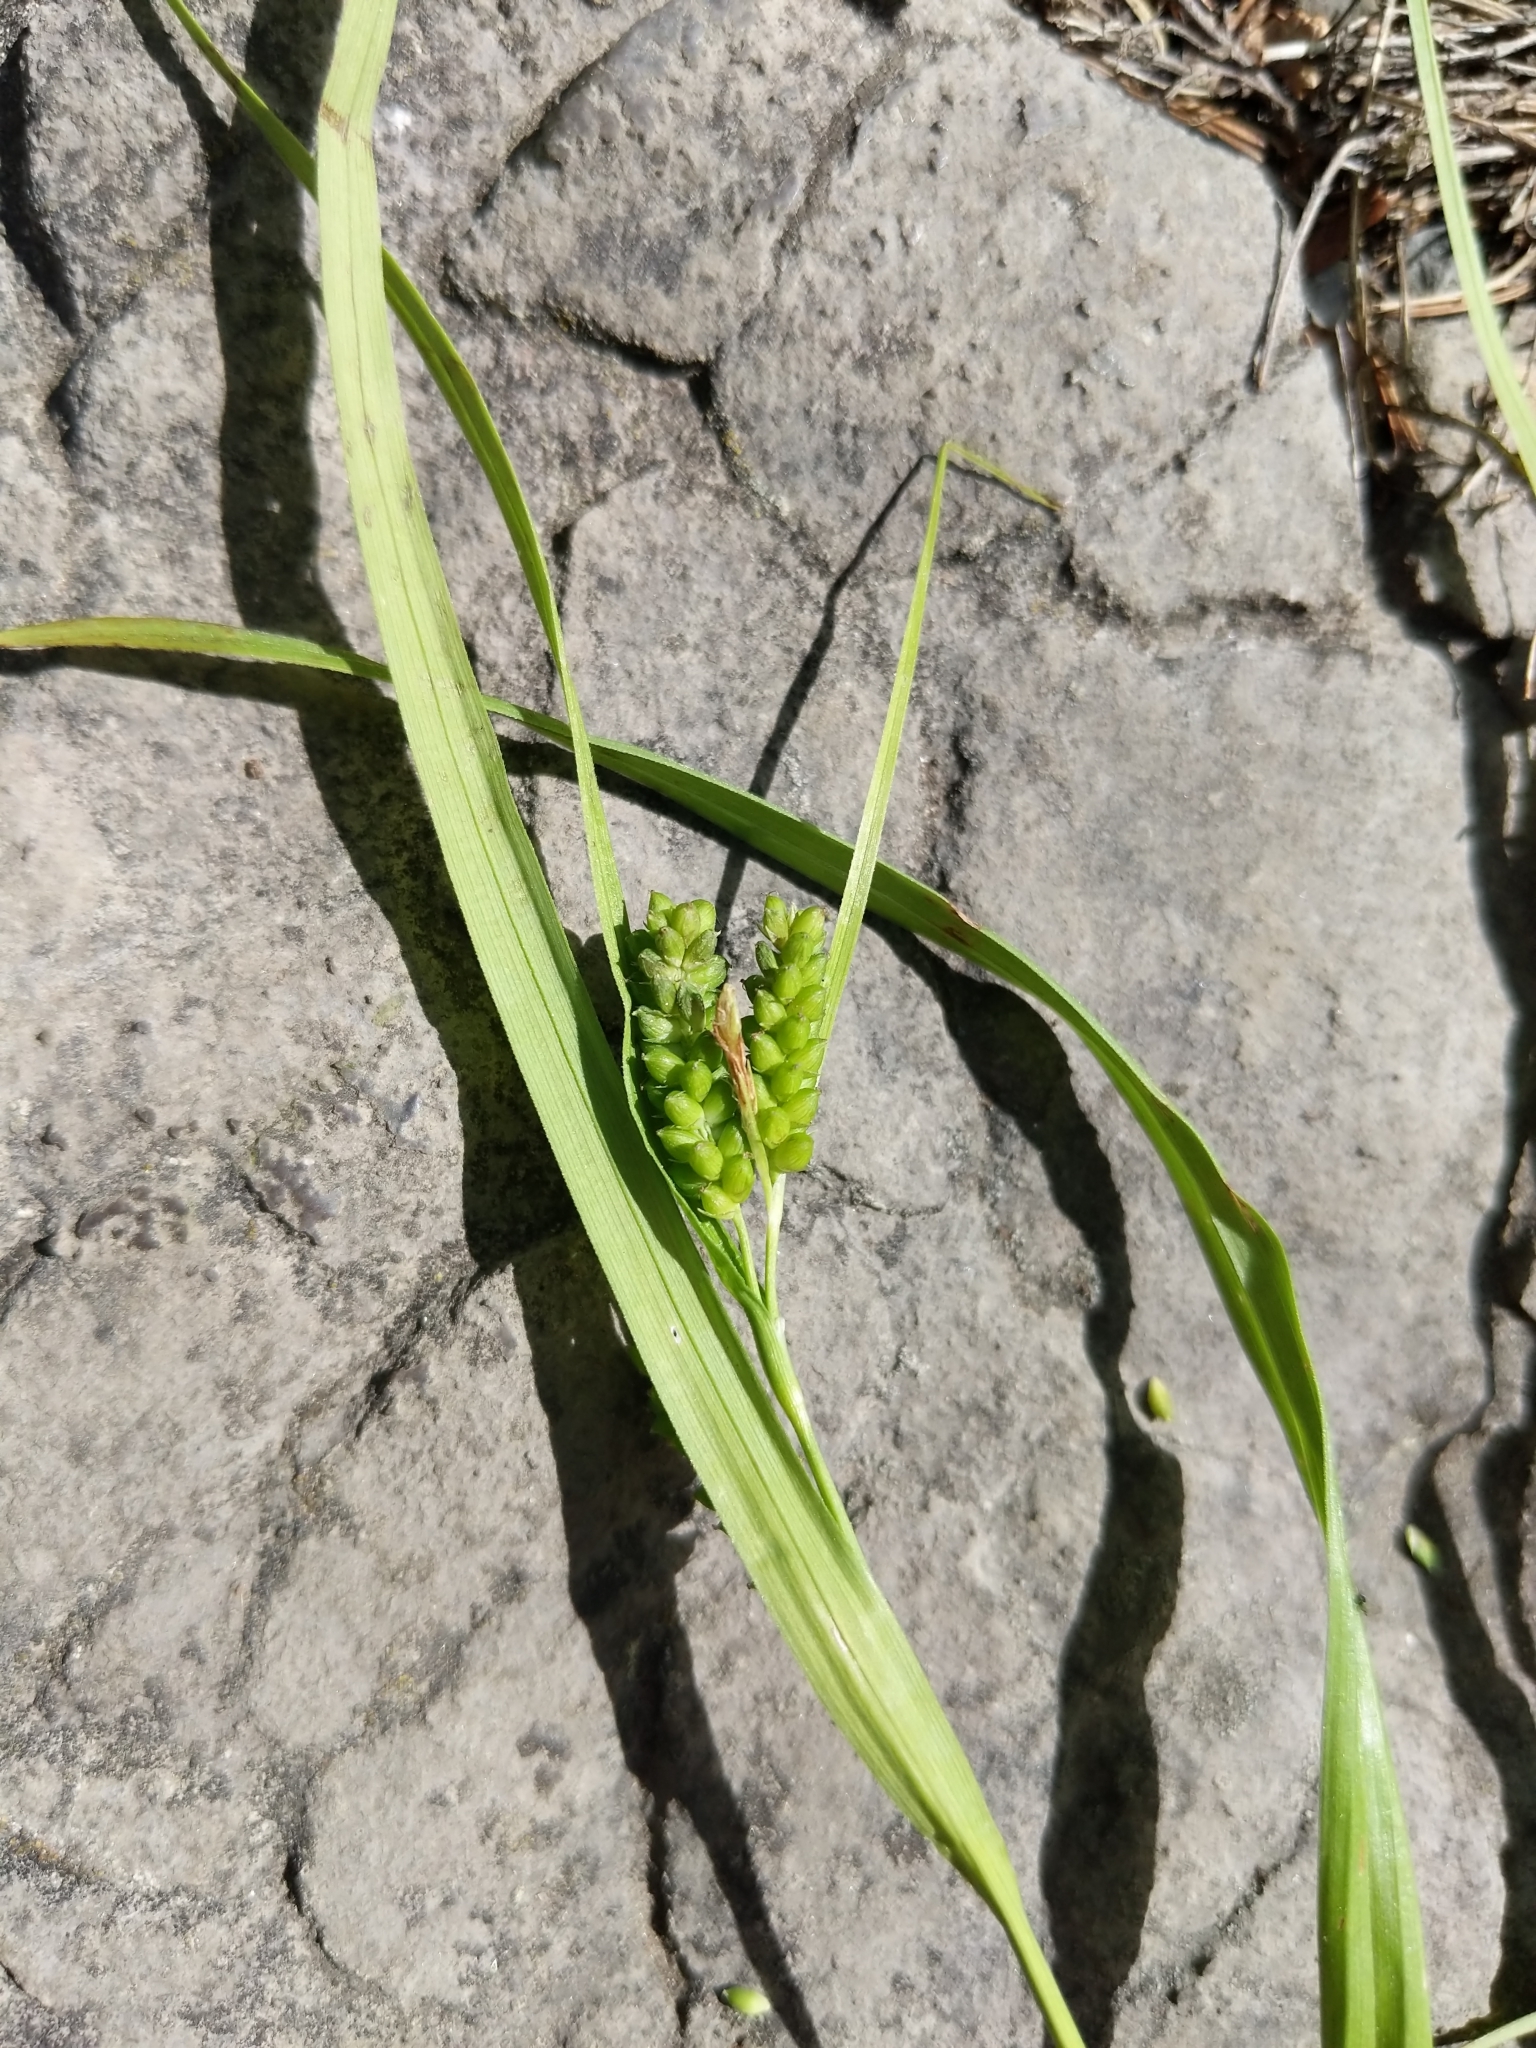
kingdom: Plantae
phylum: Tracheophyta
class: Liliopsida
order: Poales
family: Cyperaceae
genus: Carex
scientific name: Carex granularis
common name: Granular sedge
